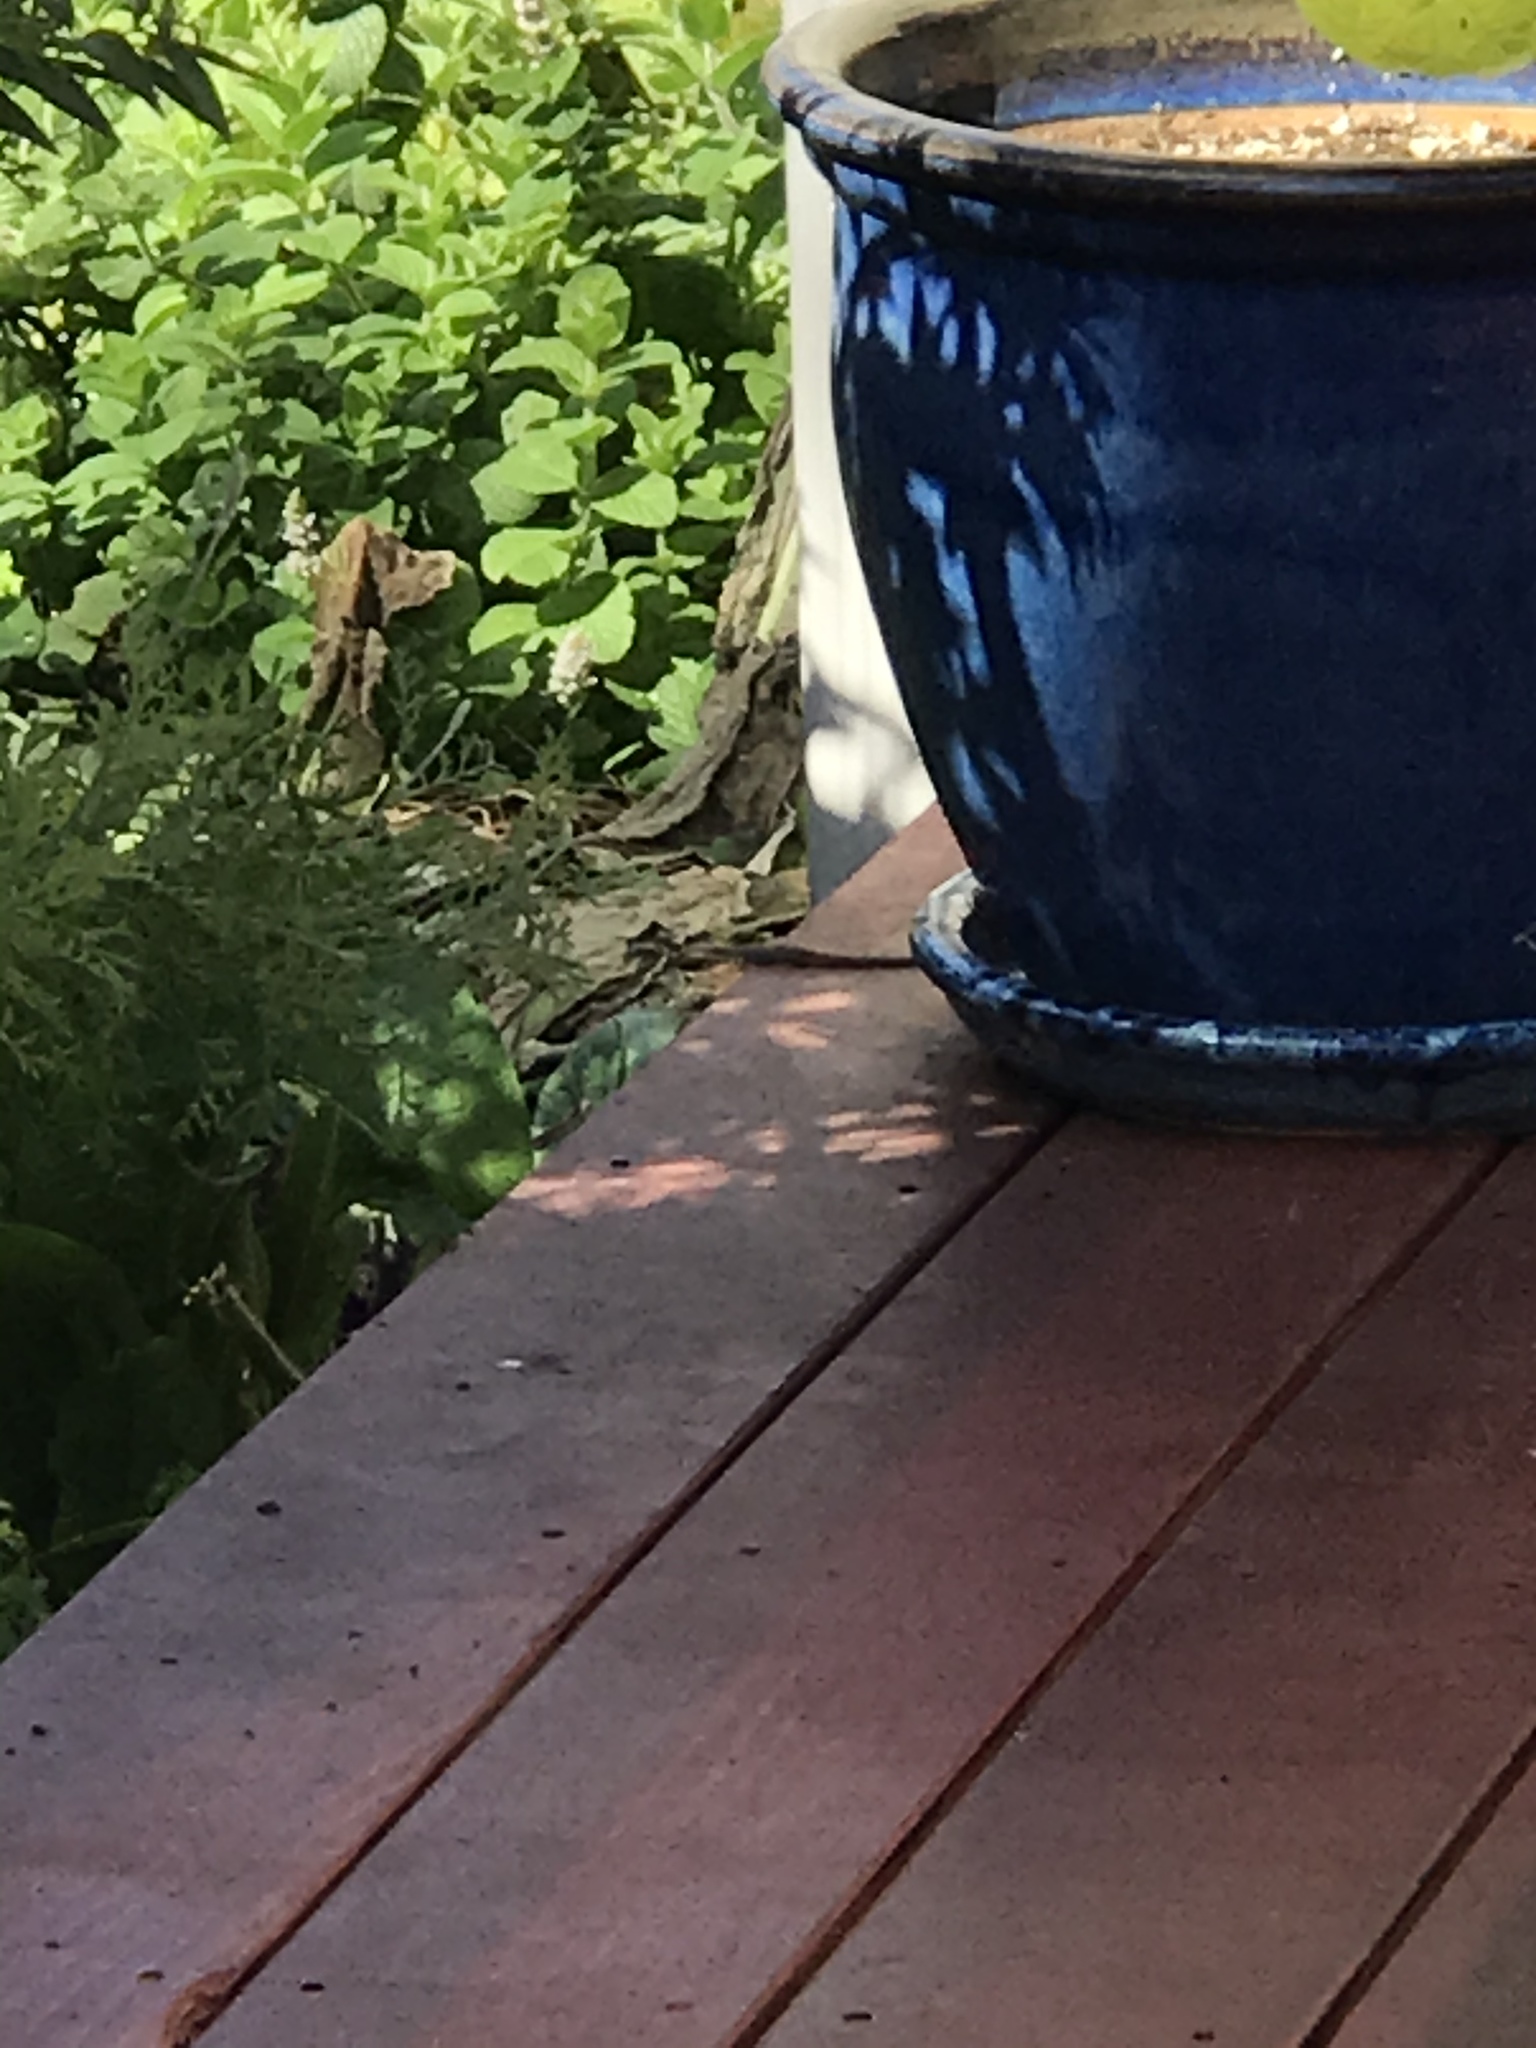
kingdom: Animalia
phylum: Chordata
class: Squamata
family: Anguidae
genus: Elgaria
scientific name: Elgaria multicarinata
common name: Southern alligator lizard
